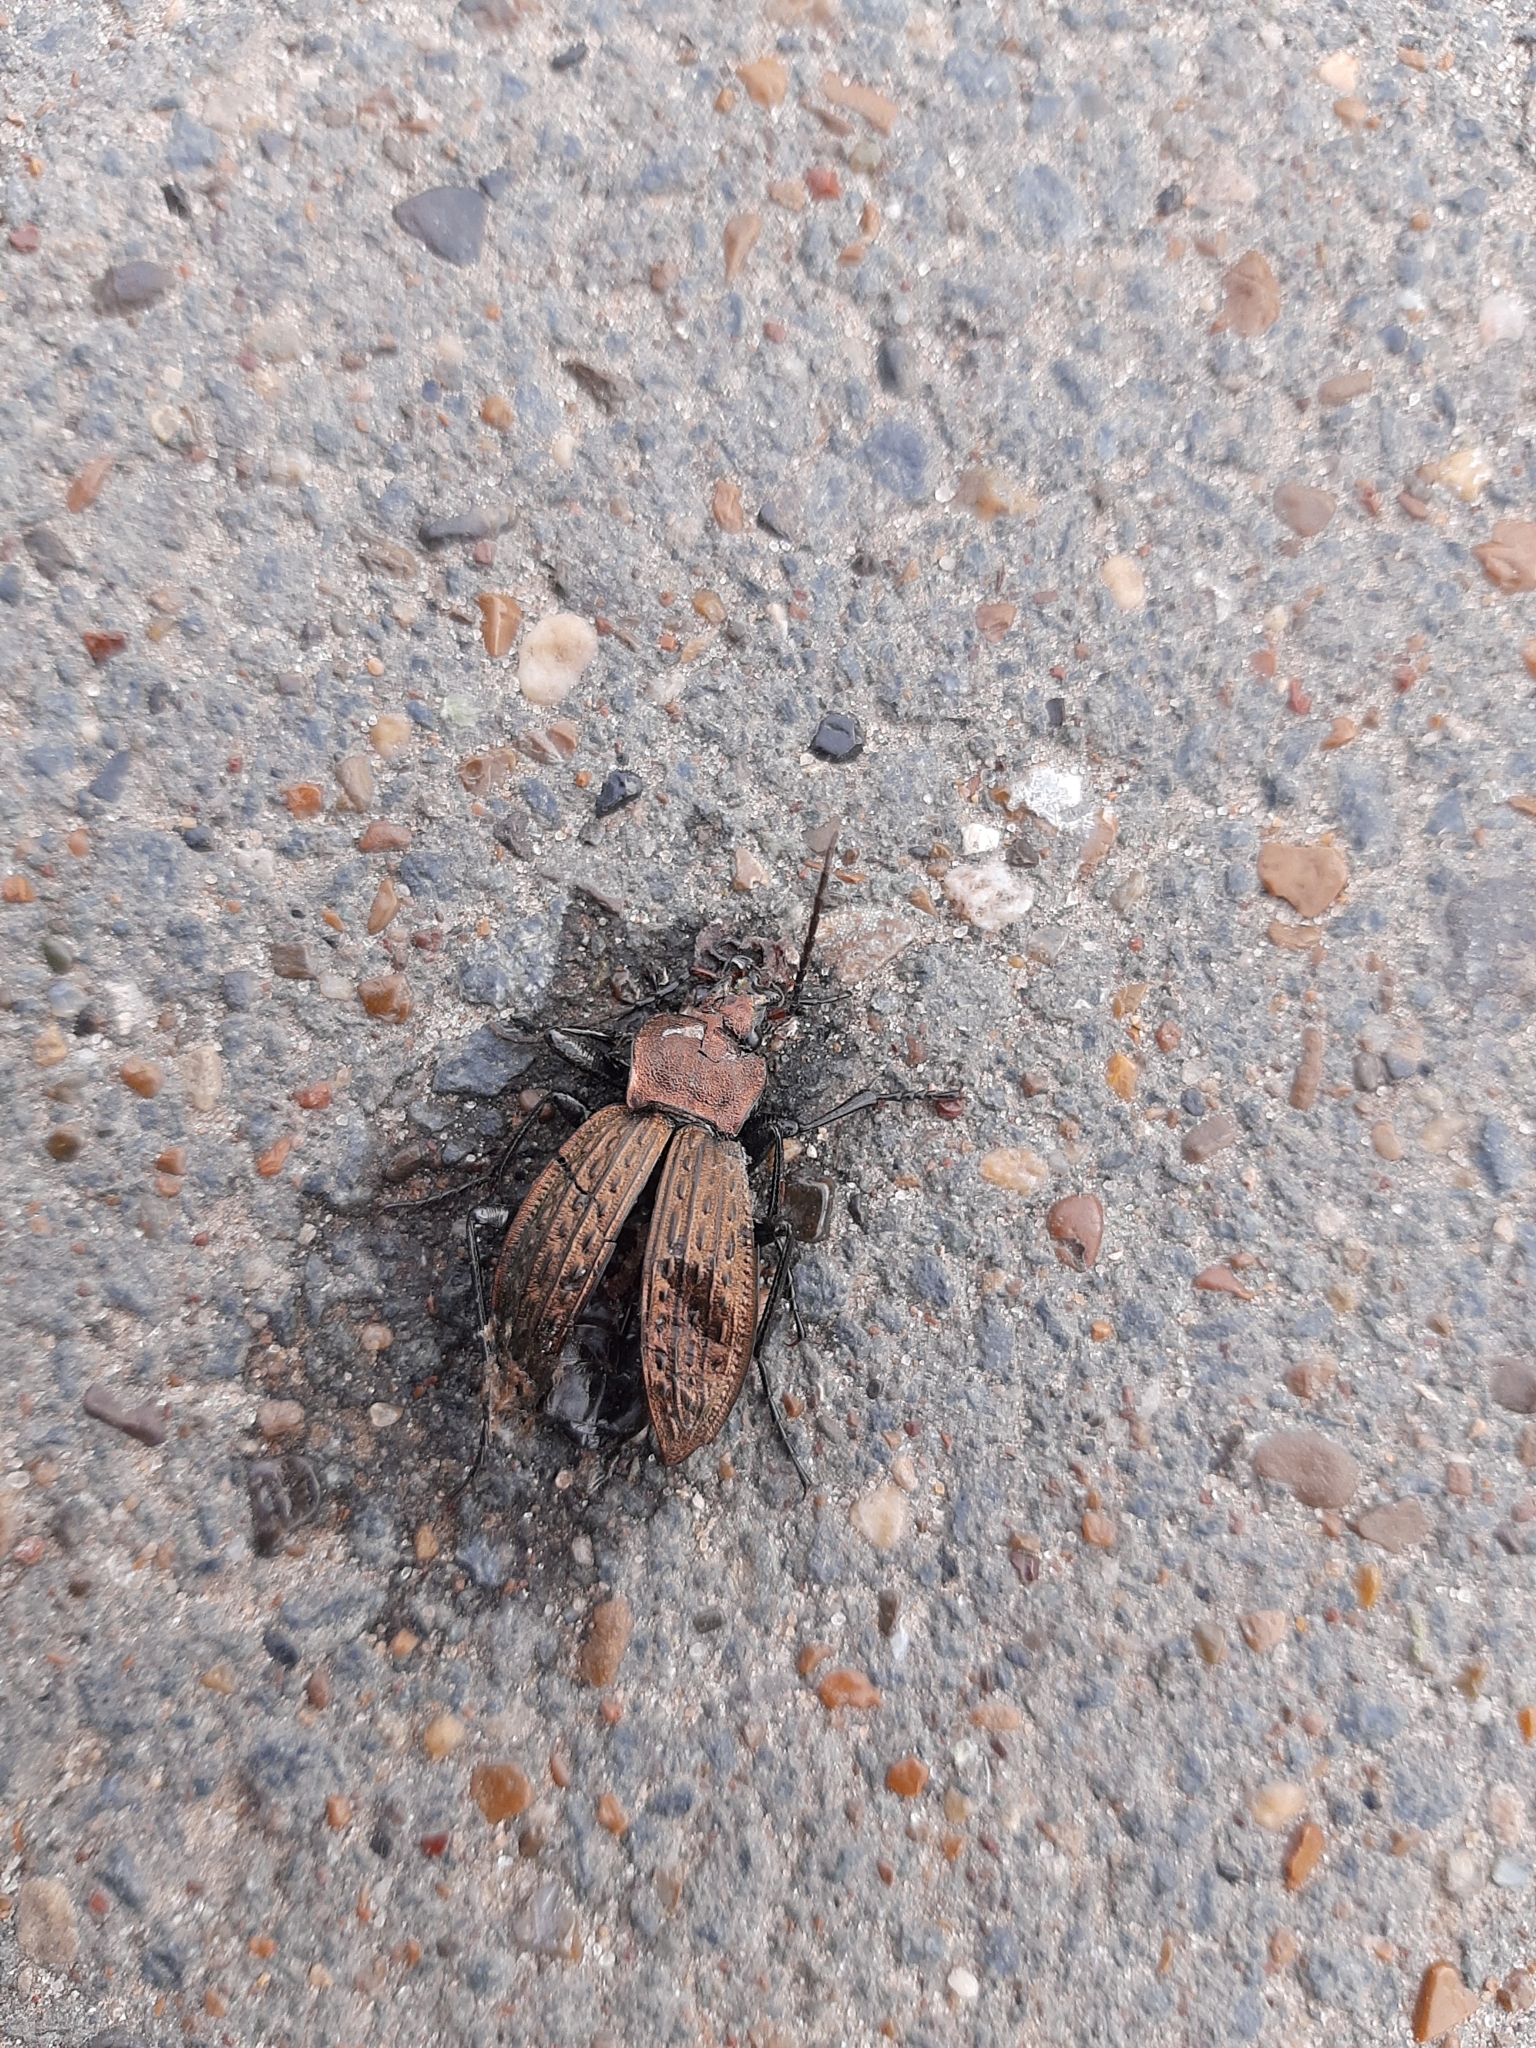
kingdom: Animalia
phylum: Arthropoda
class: Insecta
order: Coleoptera
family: Carabidae
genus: Carabus
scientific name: Carabus cancellatus
